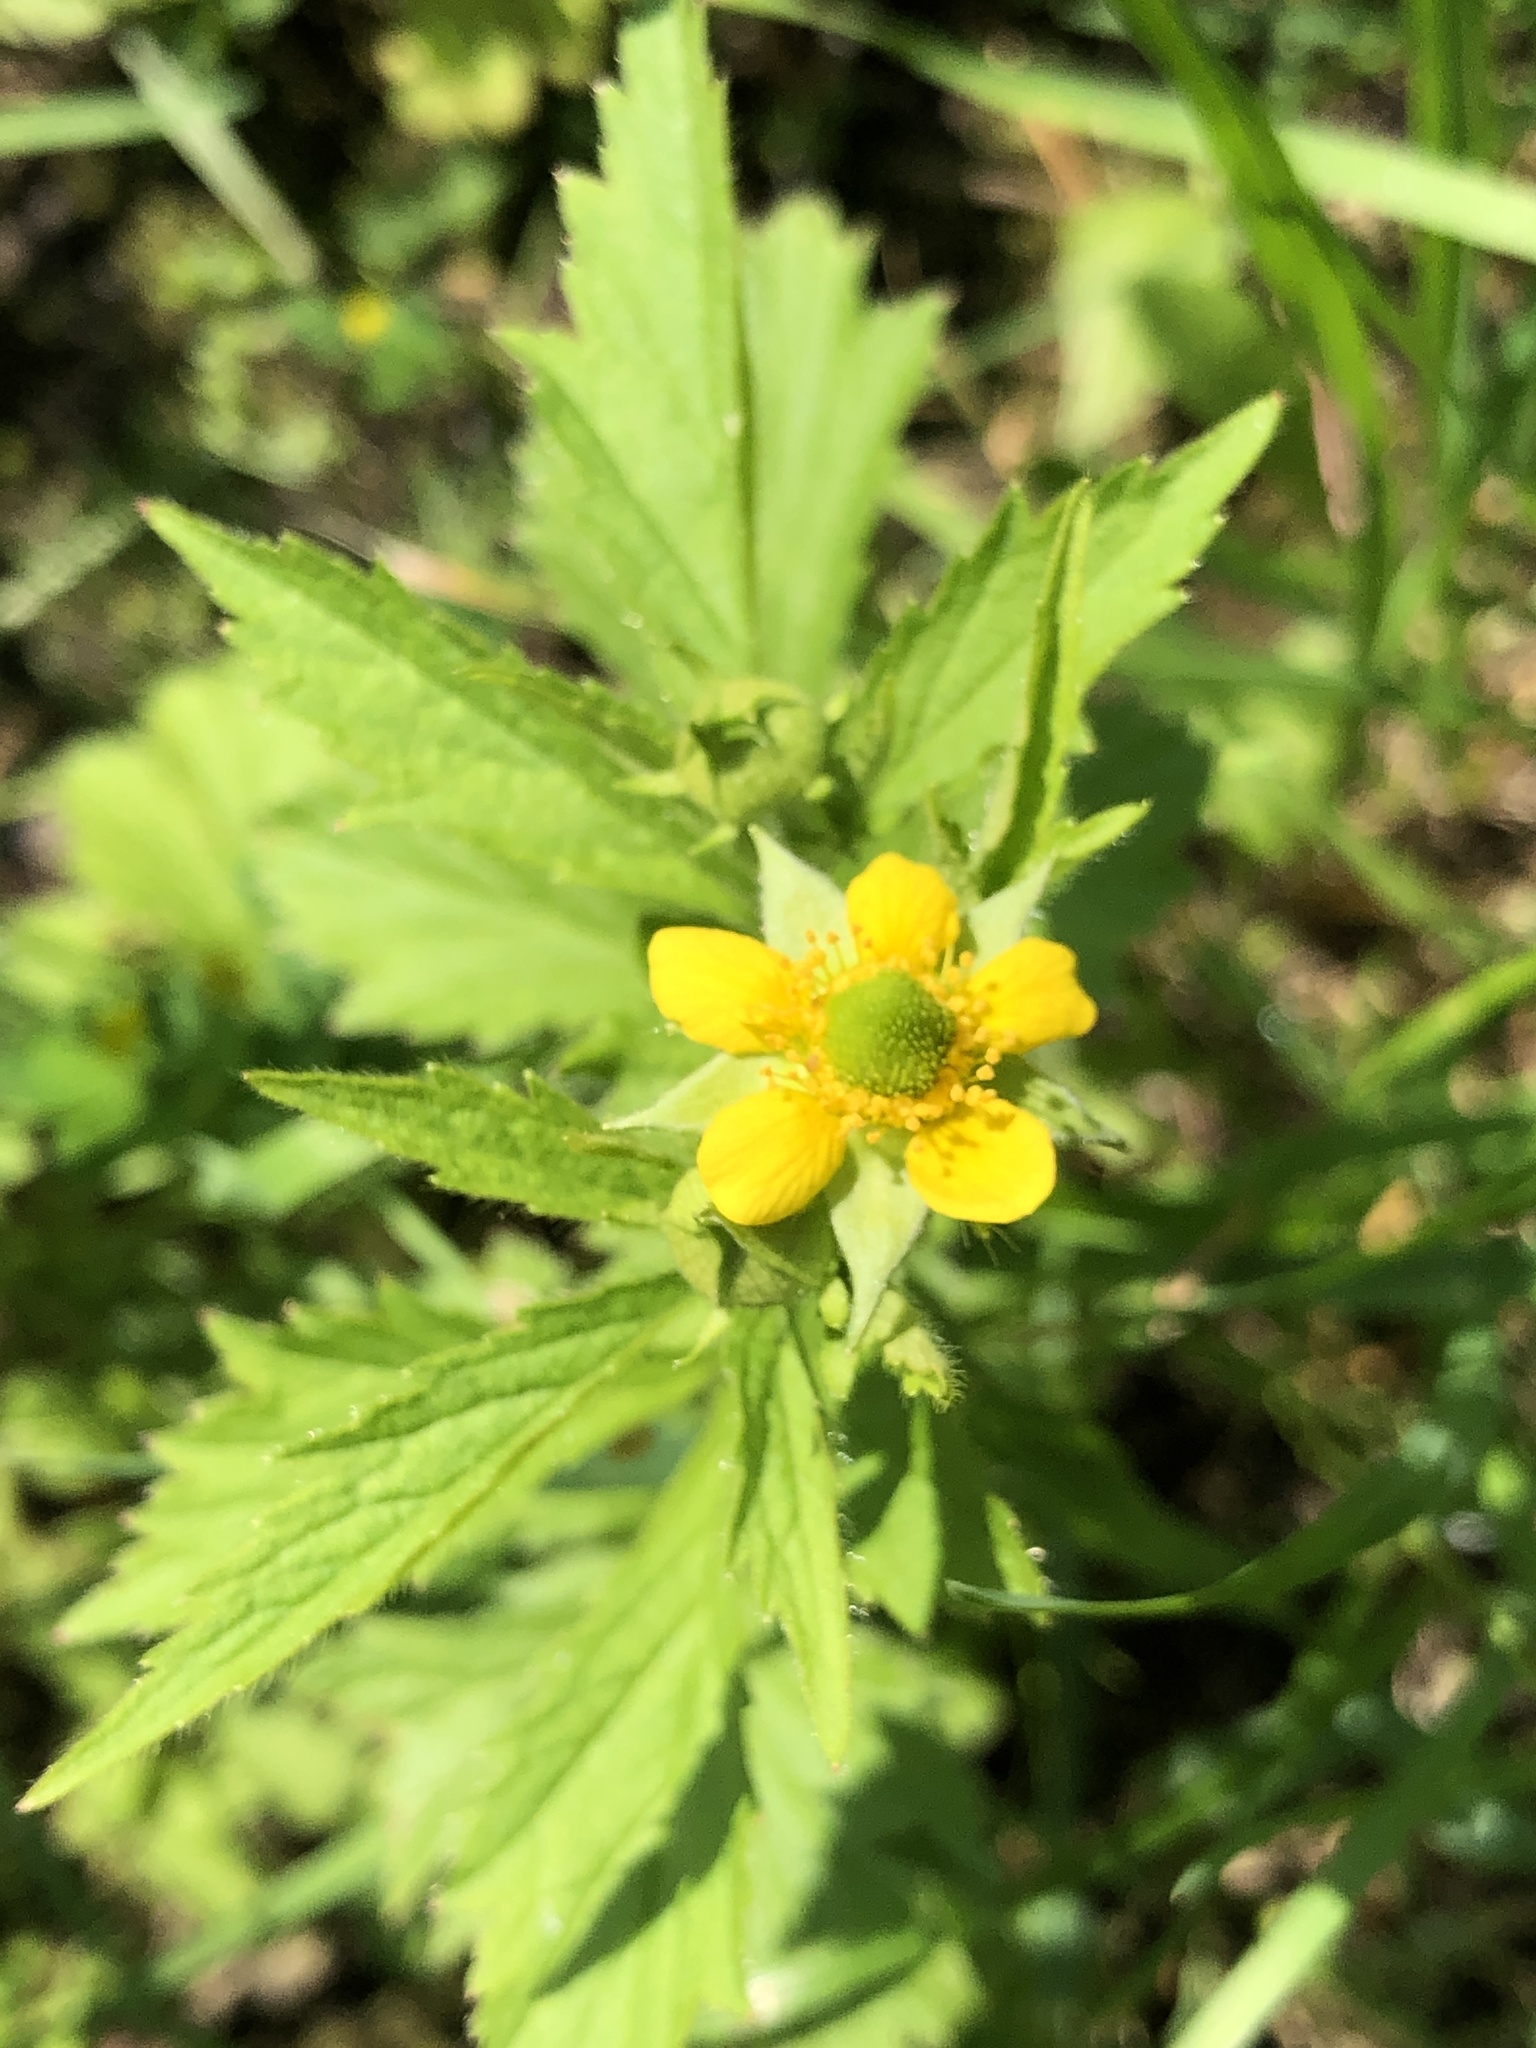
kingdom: Plantae
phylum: Tracheophyta
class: Magnoliopsida
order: Rosales
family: Rosaceae
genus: Geum
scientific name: Geum aleppicum
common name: Yellow avens
